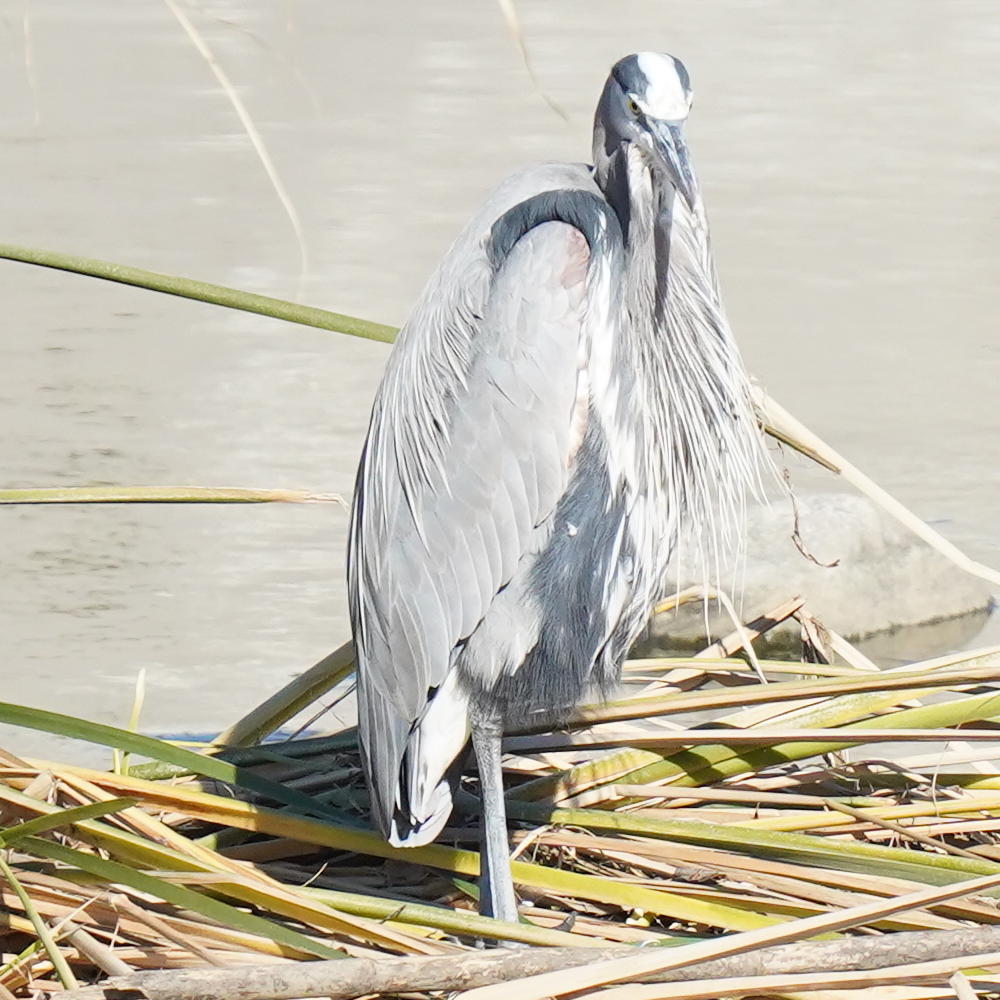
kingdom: Animalia
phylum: Chordata
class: Aves
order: Pelecaniformes
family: Ardeidae
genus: Ardea
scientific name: Ardea herodias
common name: Great blue heron
